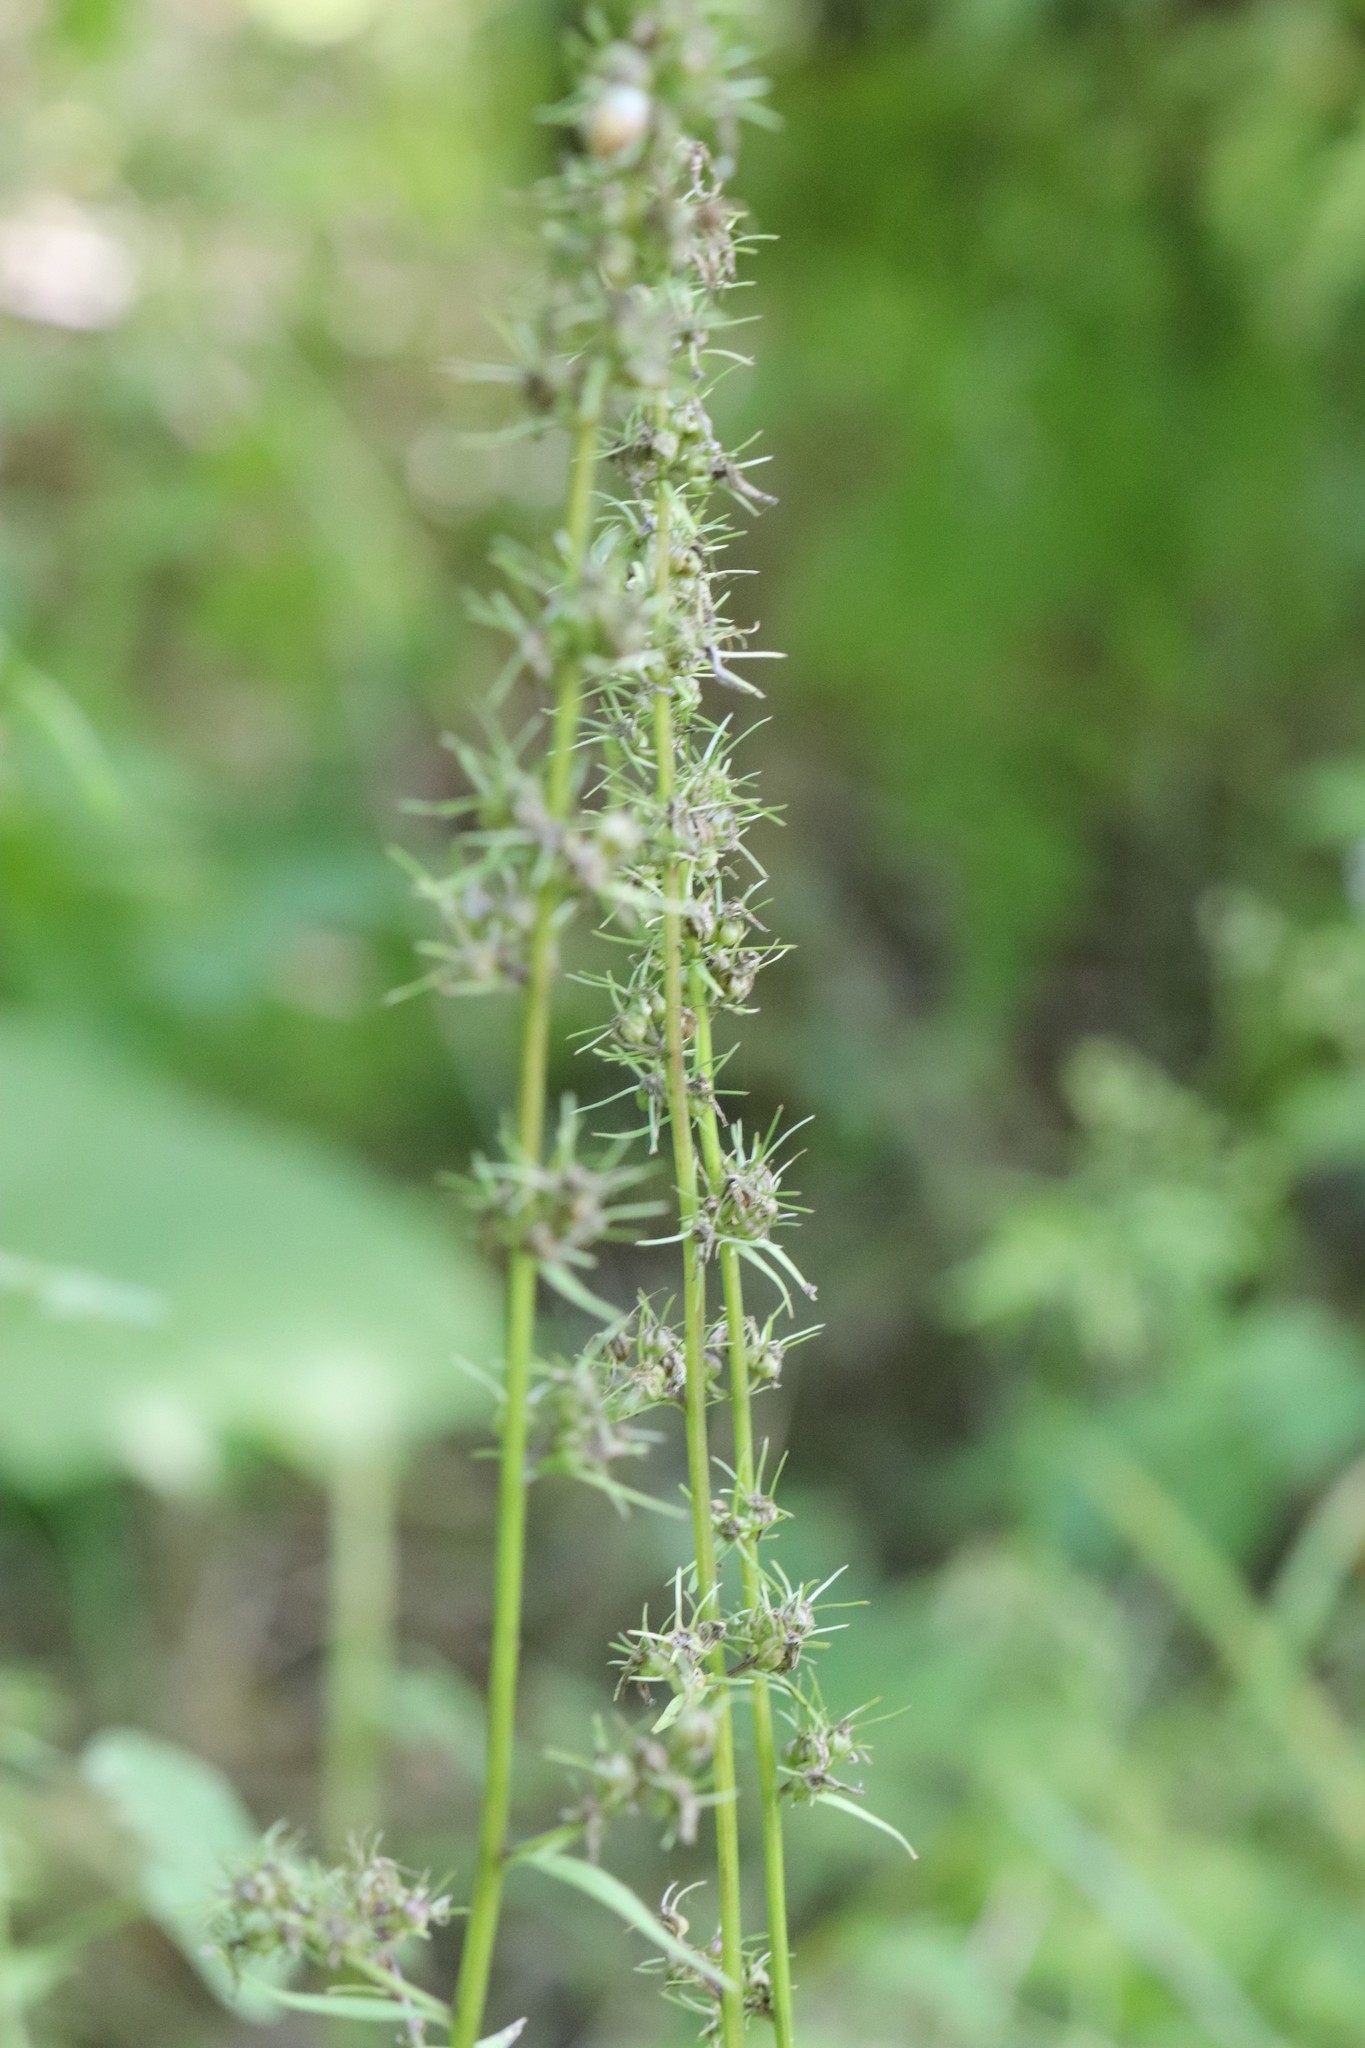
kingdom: Plantae
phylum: Tracheophyta
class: Magnoliopsida
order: Asterales
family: Campanulaceae
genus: Asyneuma
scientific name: Asyneuma japonicum
